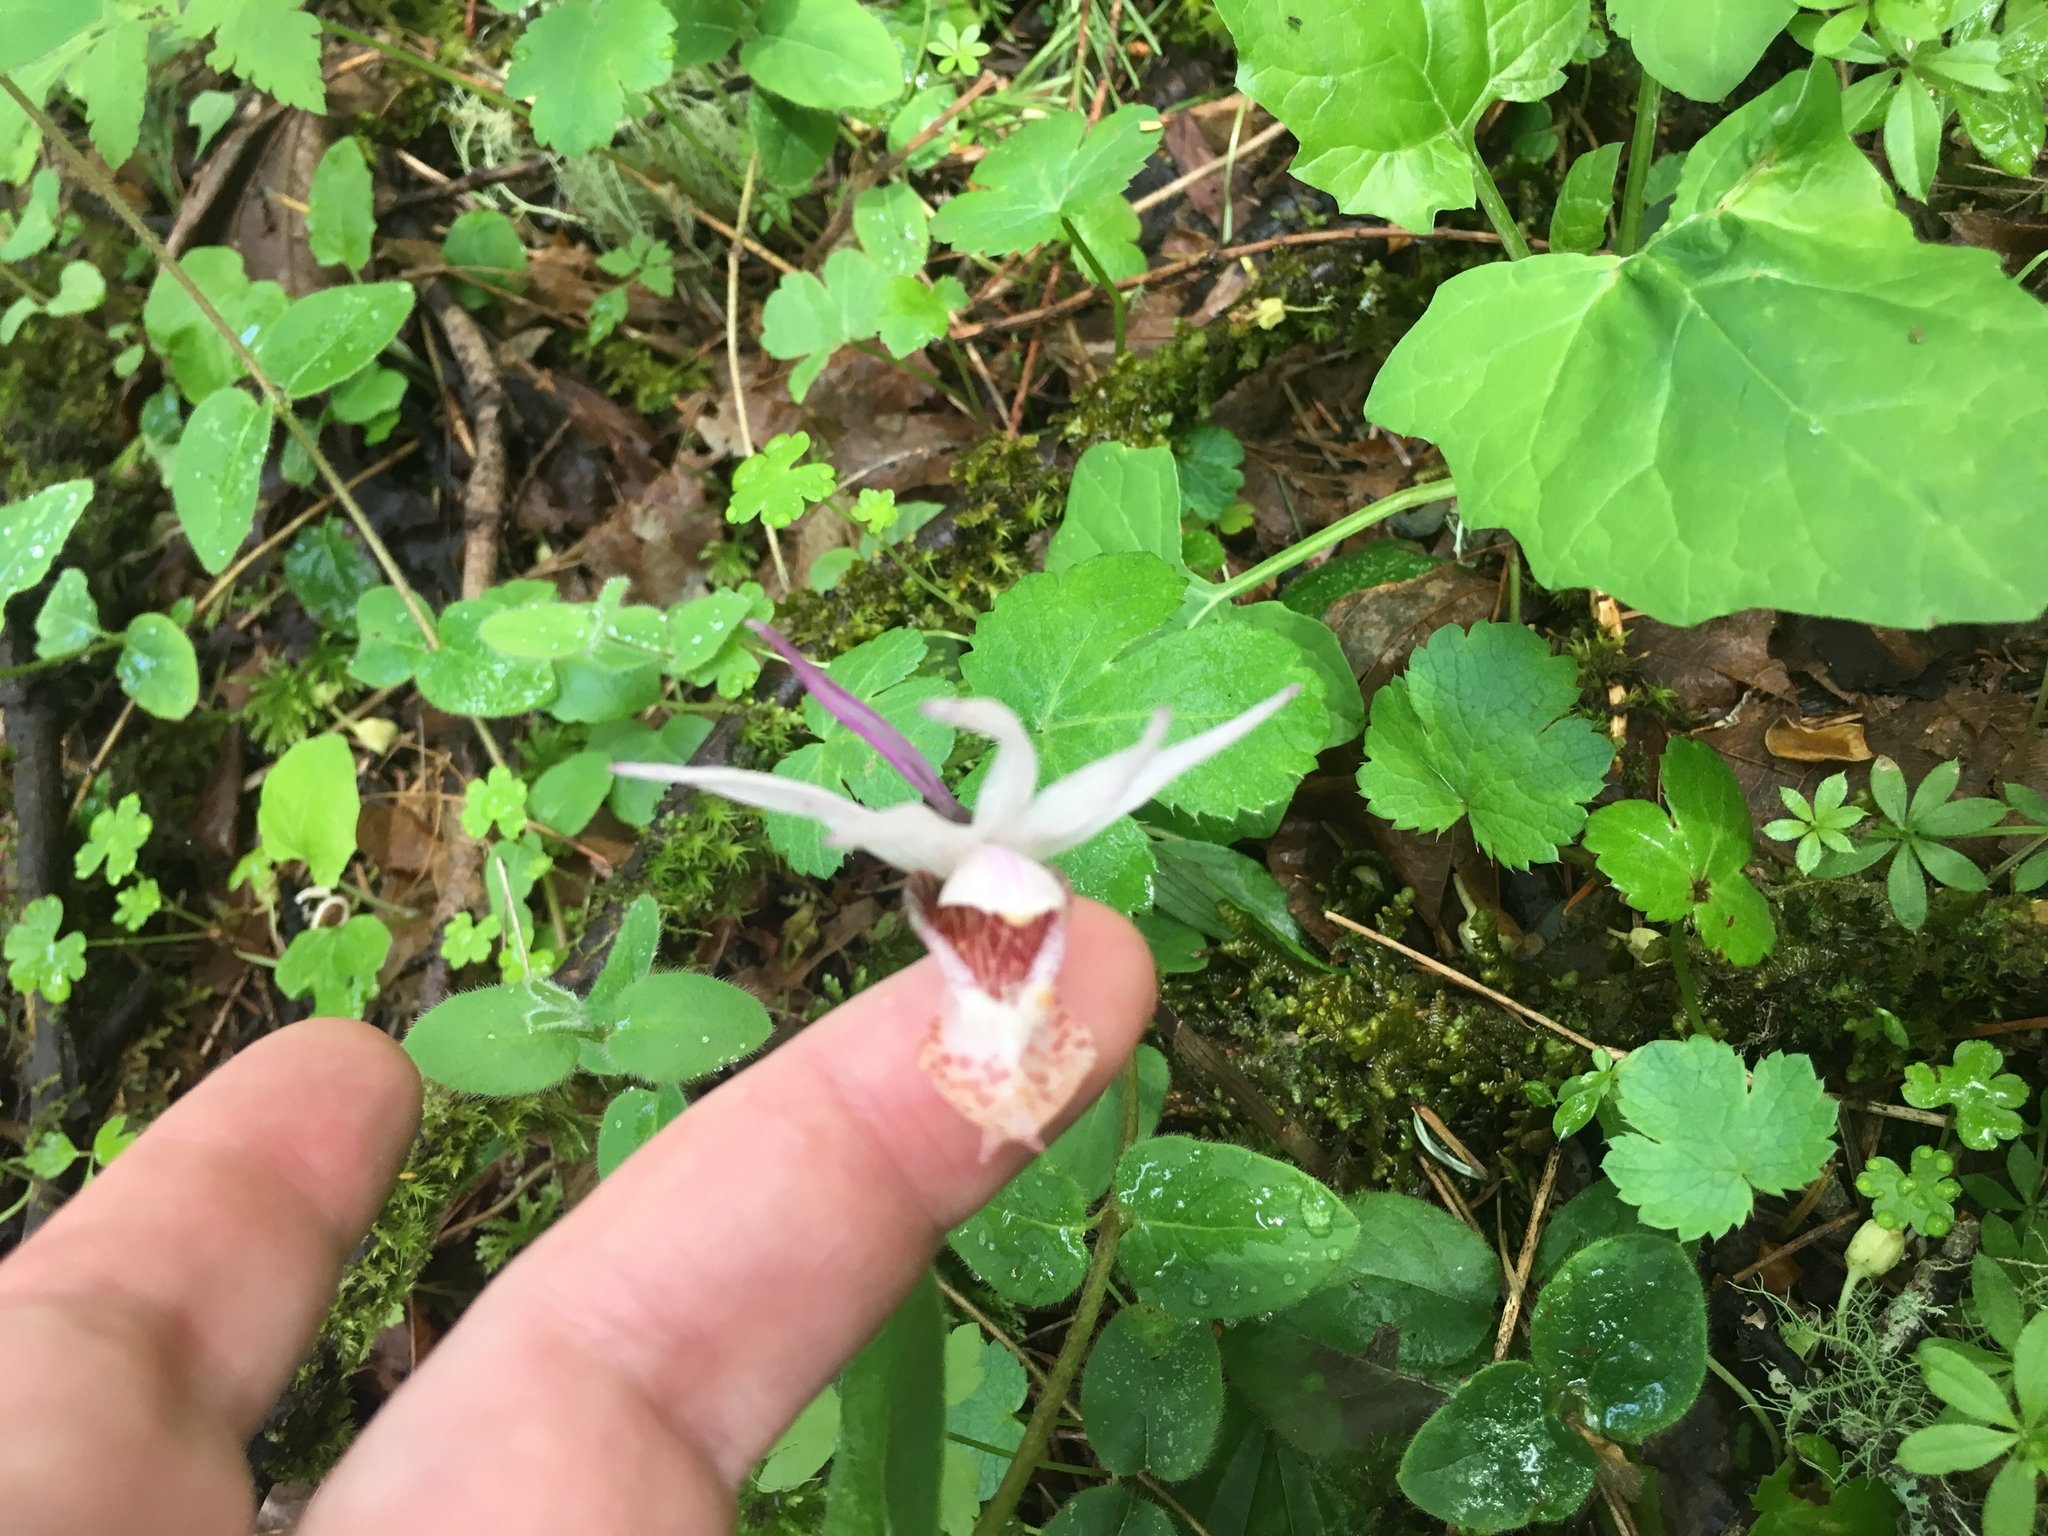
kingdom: Plantae
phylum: Tracheophyta
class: Liliopsida
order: Asparagales
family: Orchidaceae
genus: Calypso
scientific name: Calypso bulbosa
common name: Calypso
